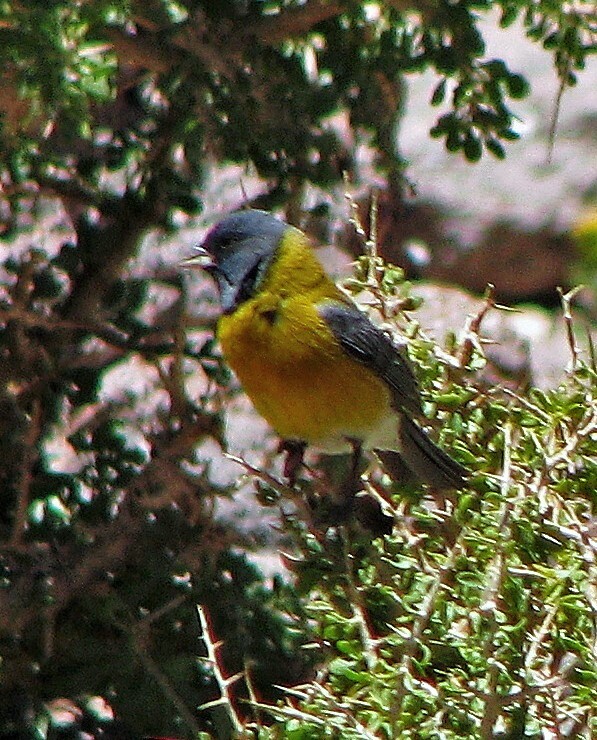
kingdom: Animalia
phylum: Chordata
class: Aves
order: Passeriformes
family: Thraupidae
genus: Phrygilus
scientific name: Phrygilus gayi
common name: Grey-hooded sierra finch
